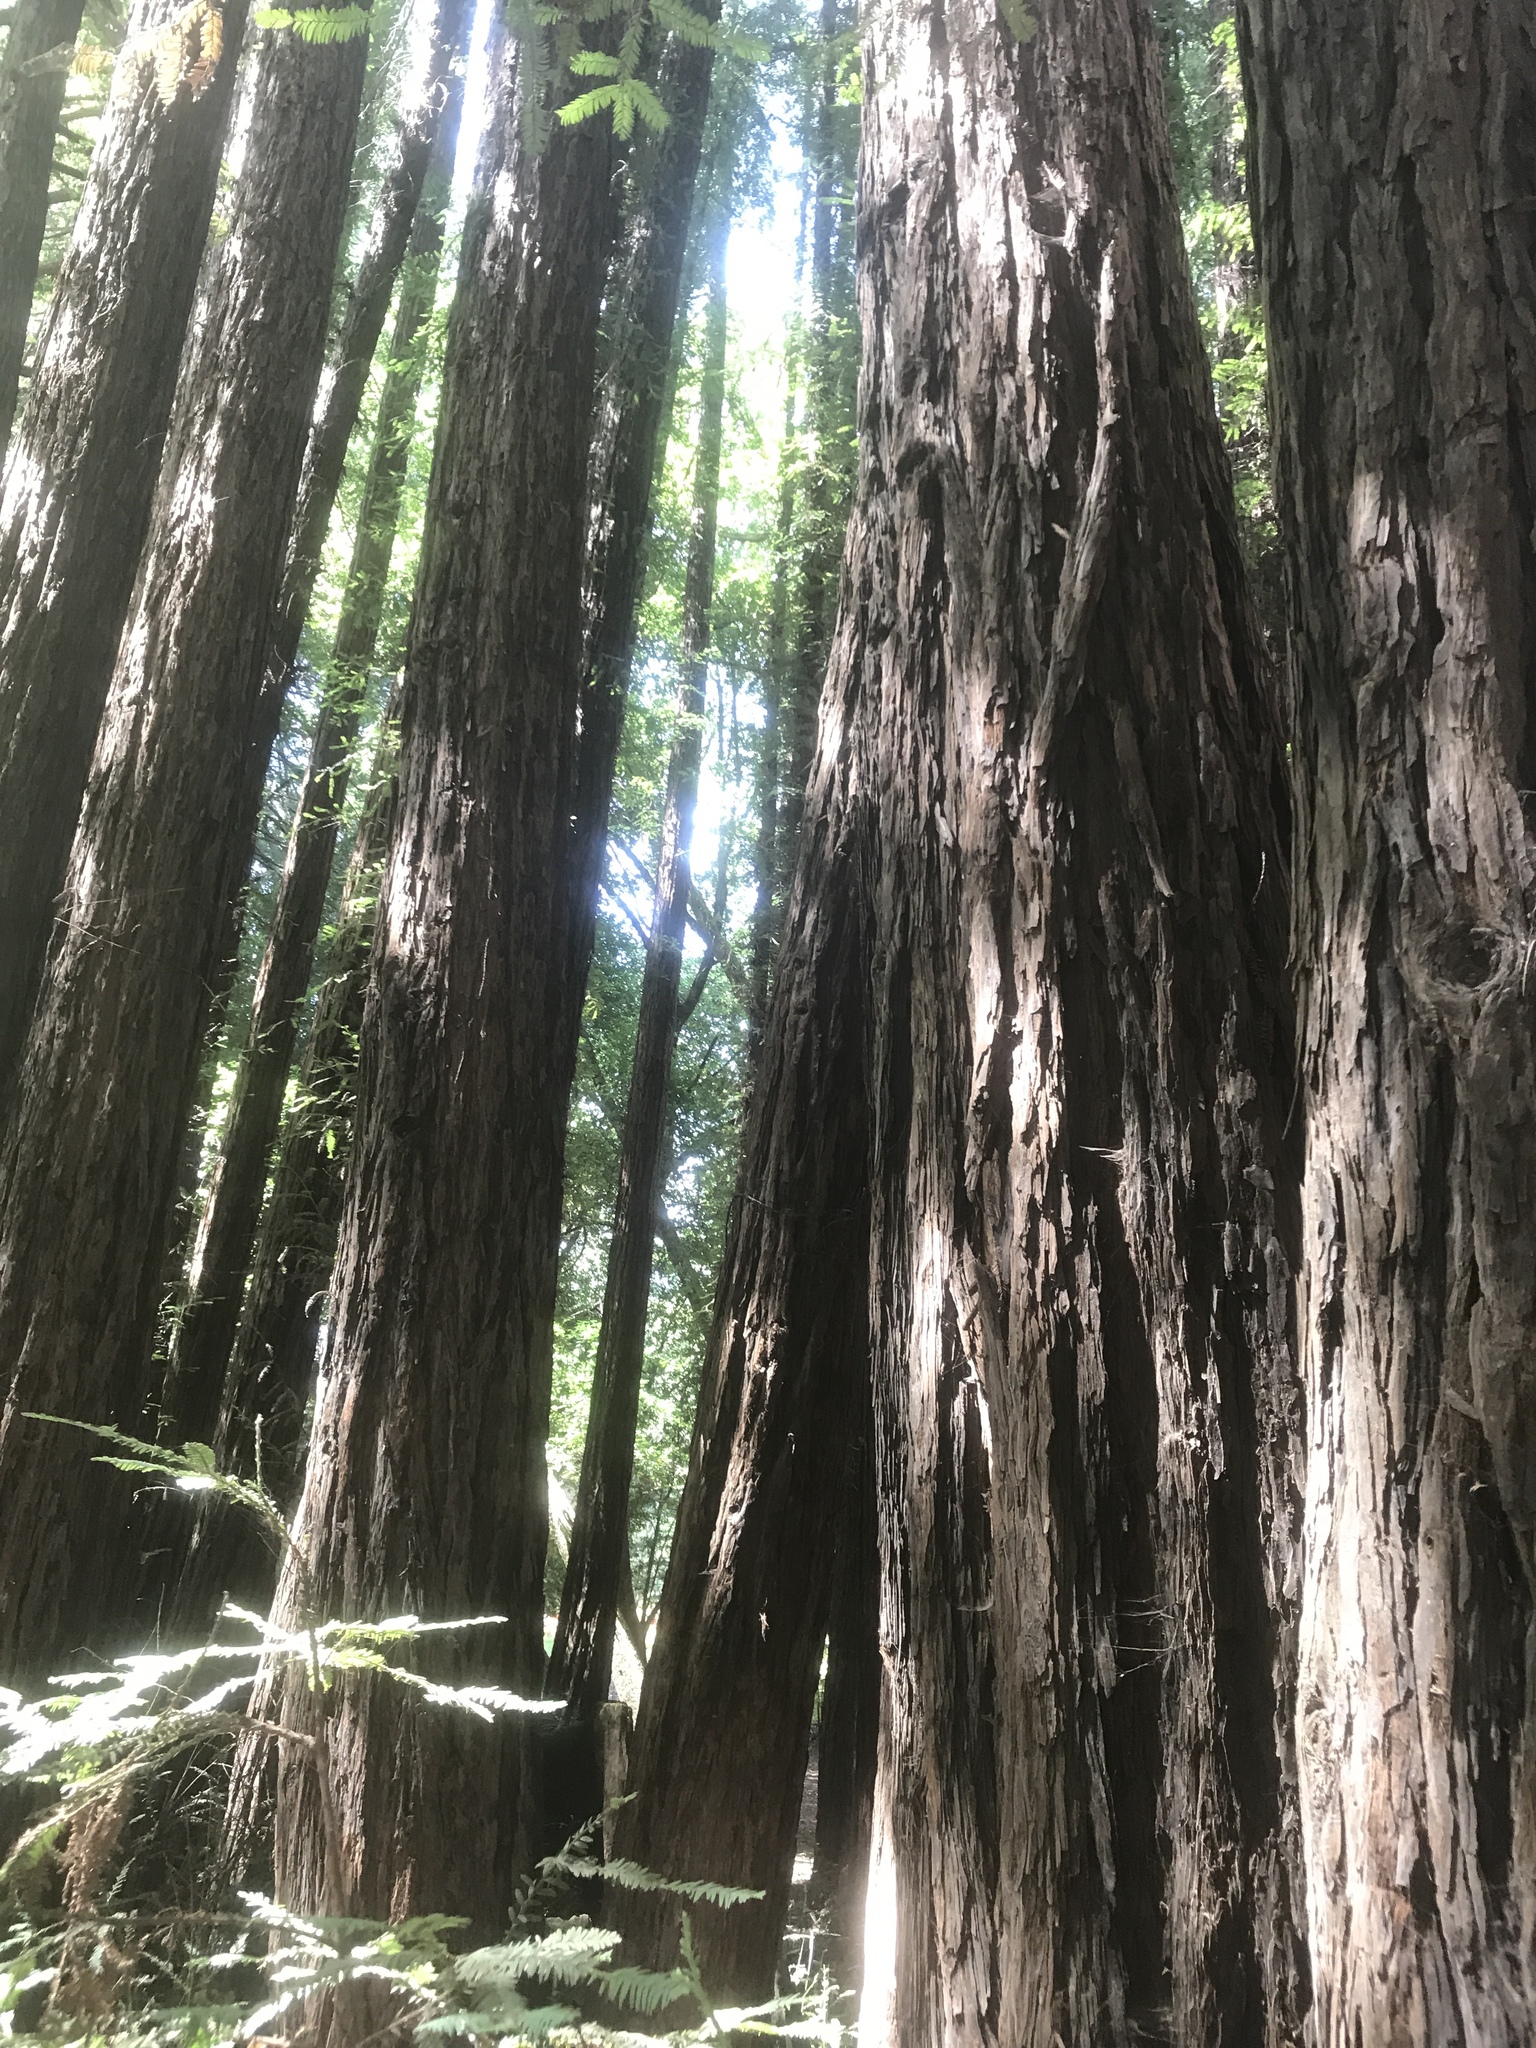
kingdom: Plantae
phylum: Tracheophyta
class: Pinopsida
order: Pinales
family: Cupressaceae
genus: Sequoia
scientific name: Sequoia sempervirens
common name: Coast redwood
